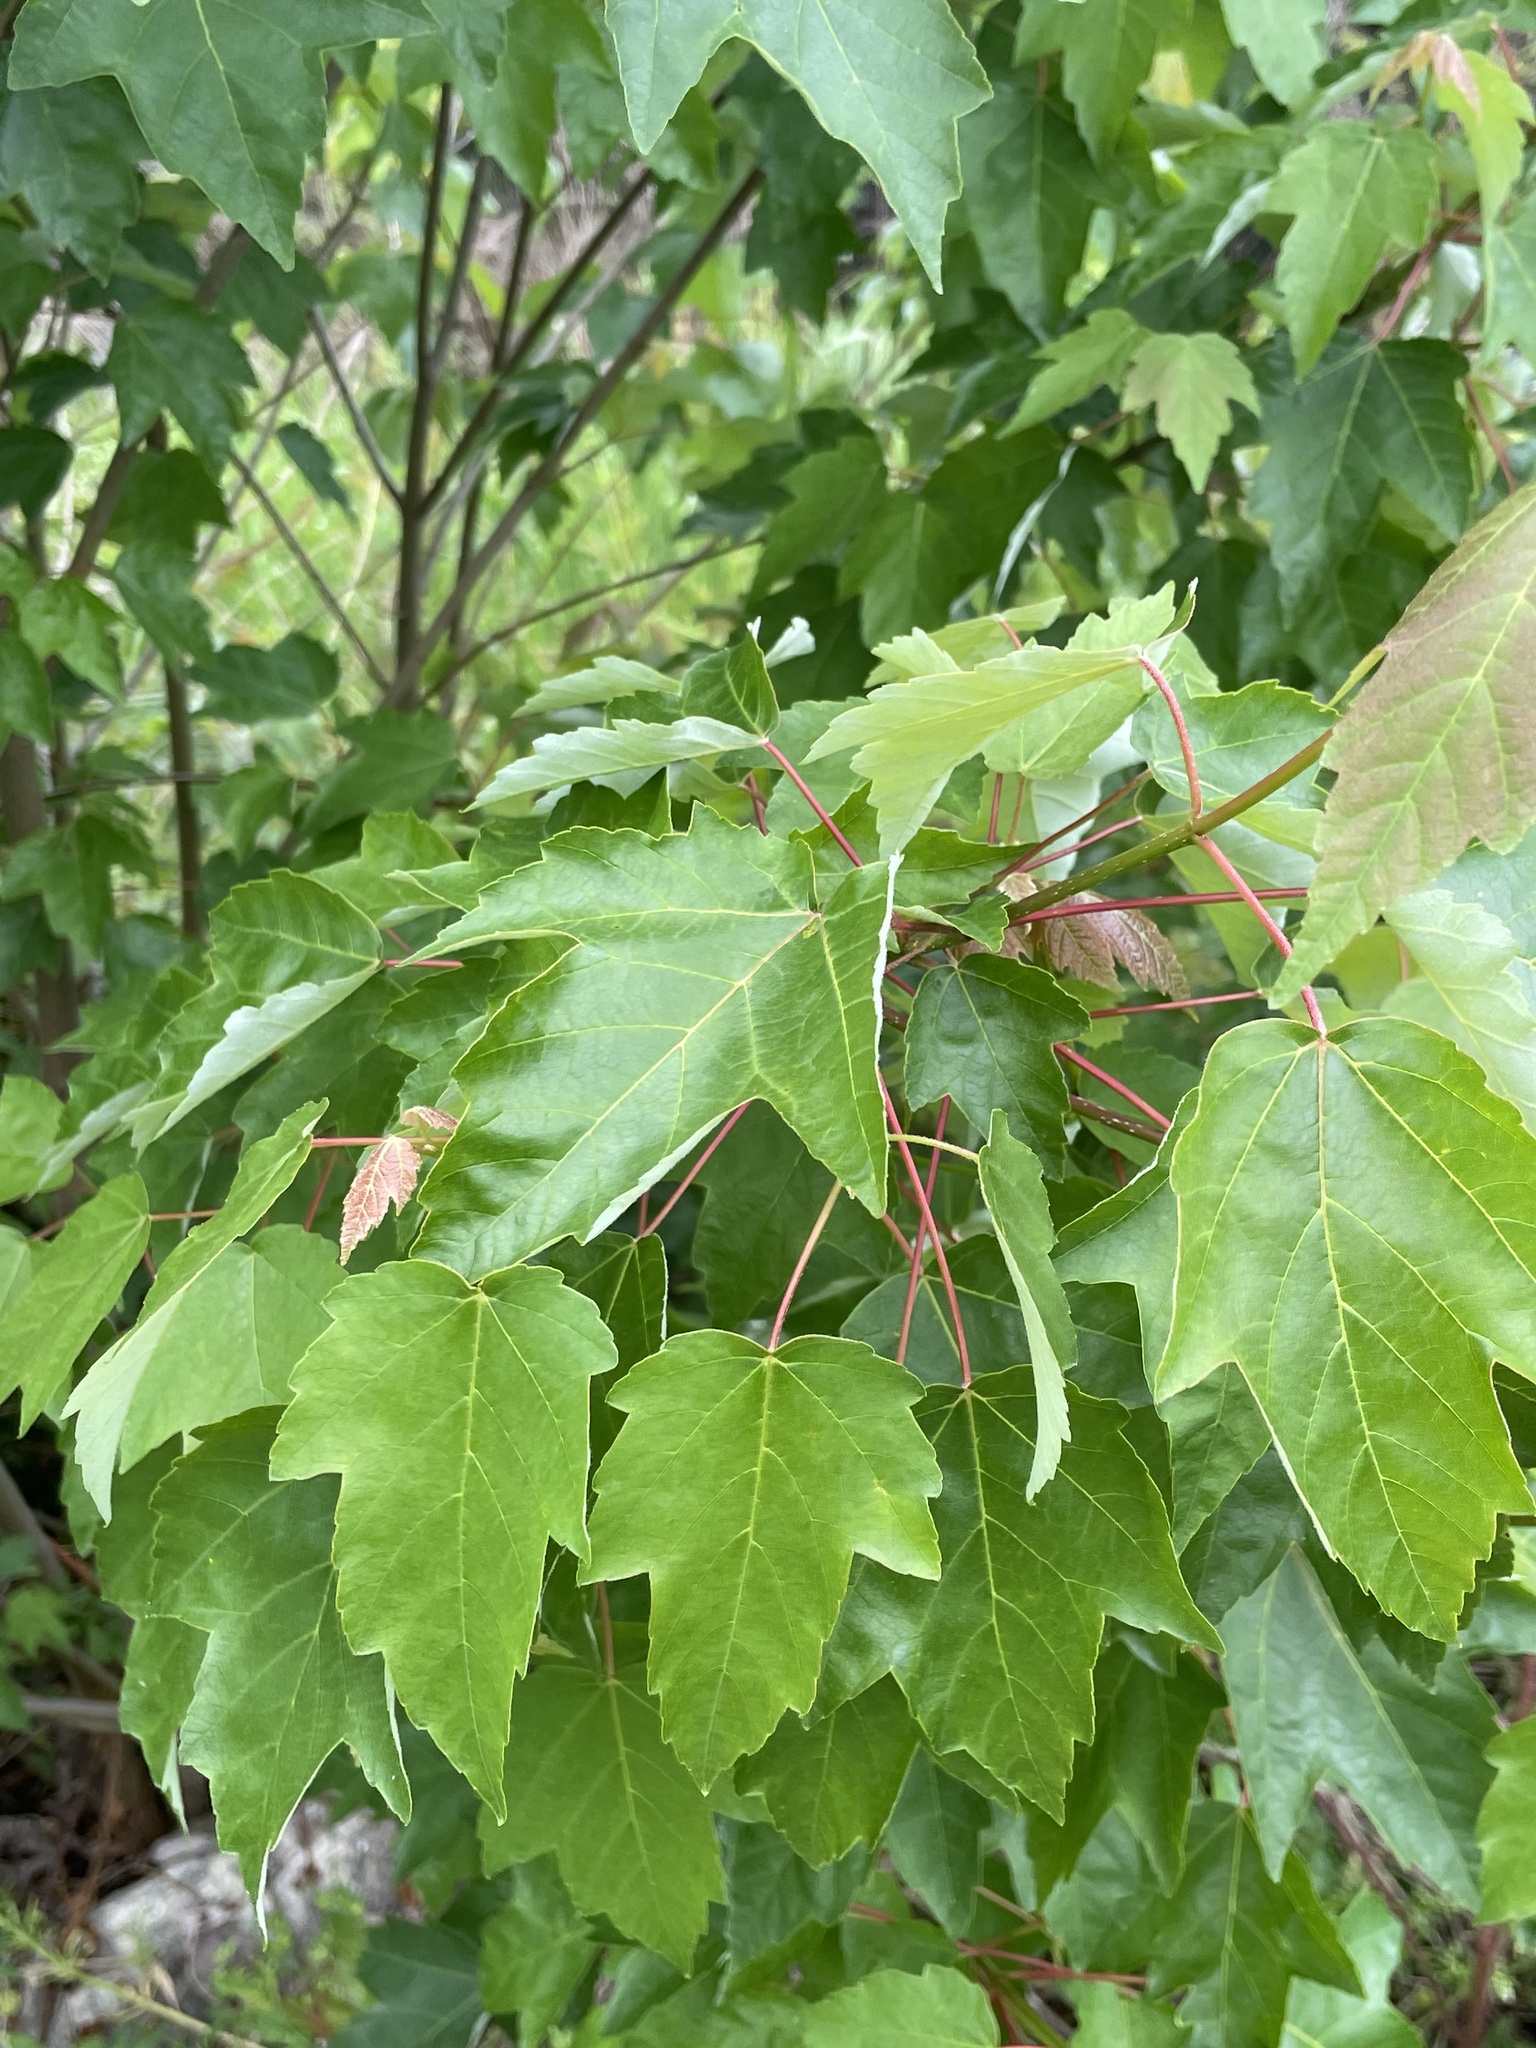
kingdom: Plantae
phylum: Tracheophyta
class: Magnoliopsida
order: Sapindales
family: Sapindaceae
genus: Acer
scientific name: Acer rubrum
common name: Red maple
